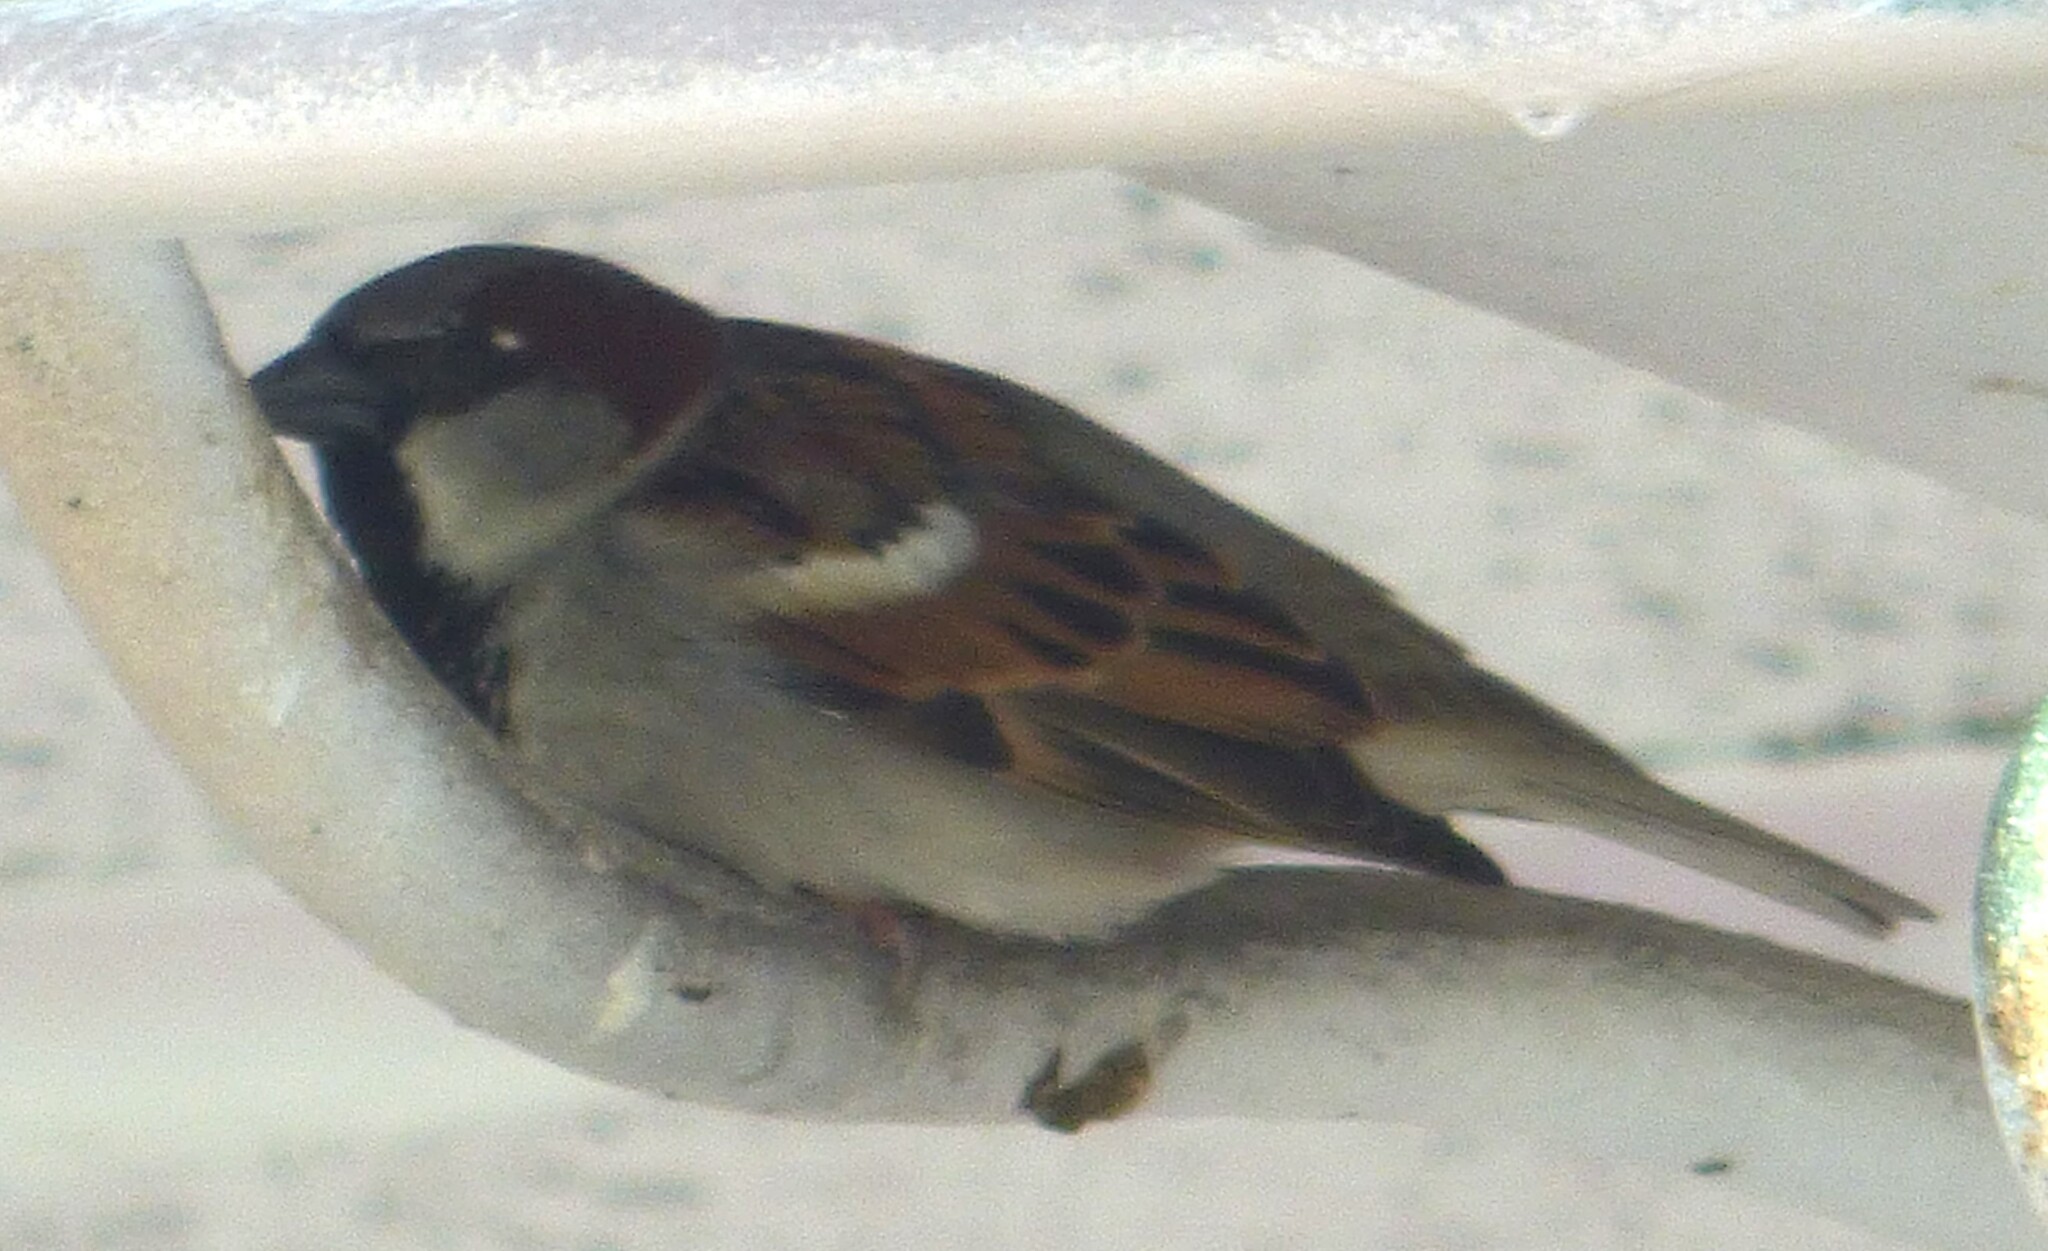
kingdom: Animalia
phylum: Chordata
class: Aves
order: Passeriformes
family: Passeridae
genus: Passer
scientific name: Passer domesticus
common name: House sparrow
